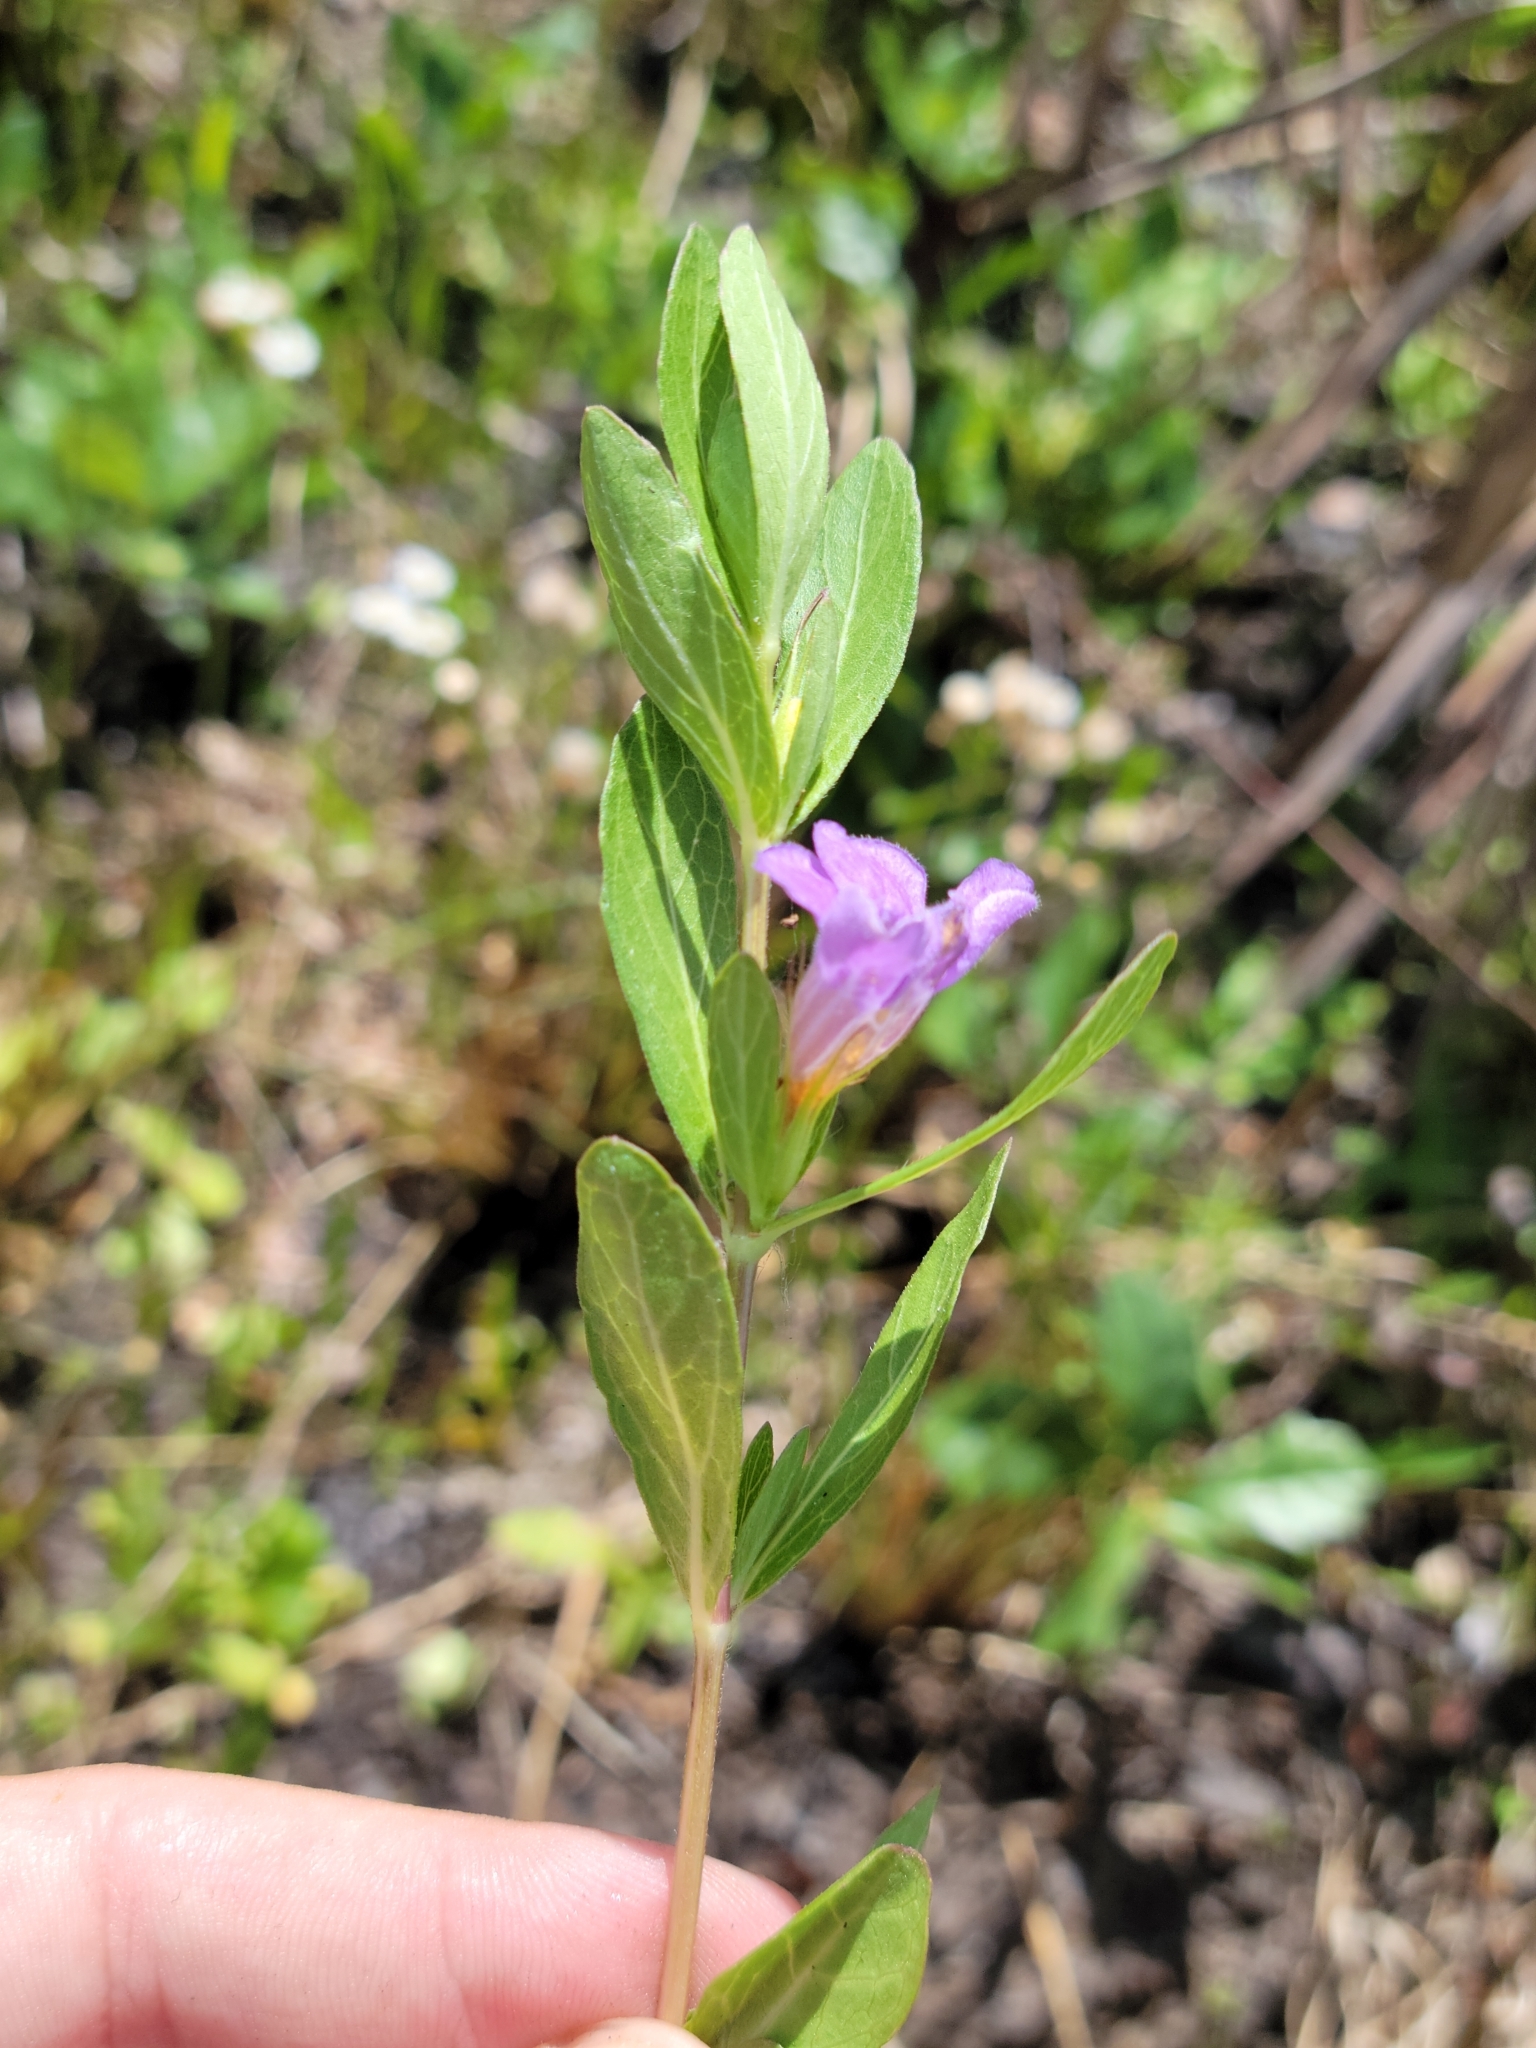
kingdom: Plantae
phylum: Tracheophyta
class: Magnoliopsida
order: Lamiales
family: Acanthaceae
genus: Dyschoriste
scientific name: Dyschoriste oblongifolia
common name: Blue twinflower
